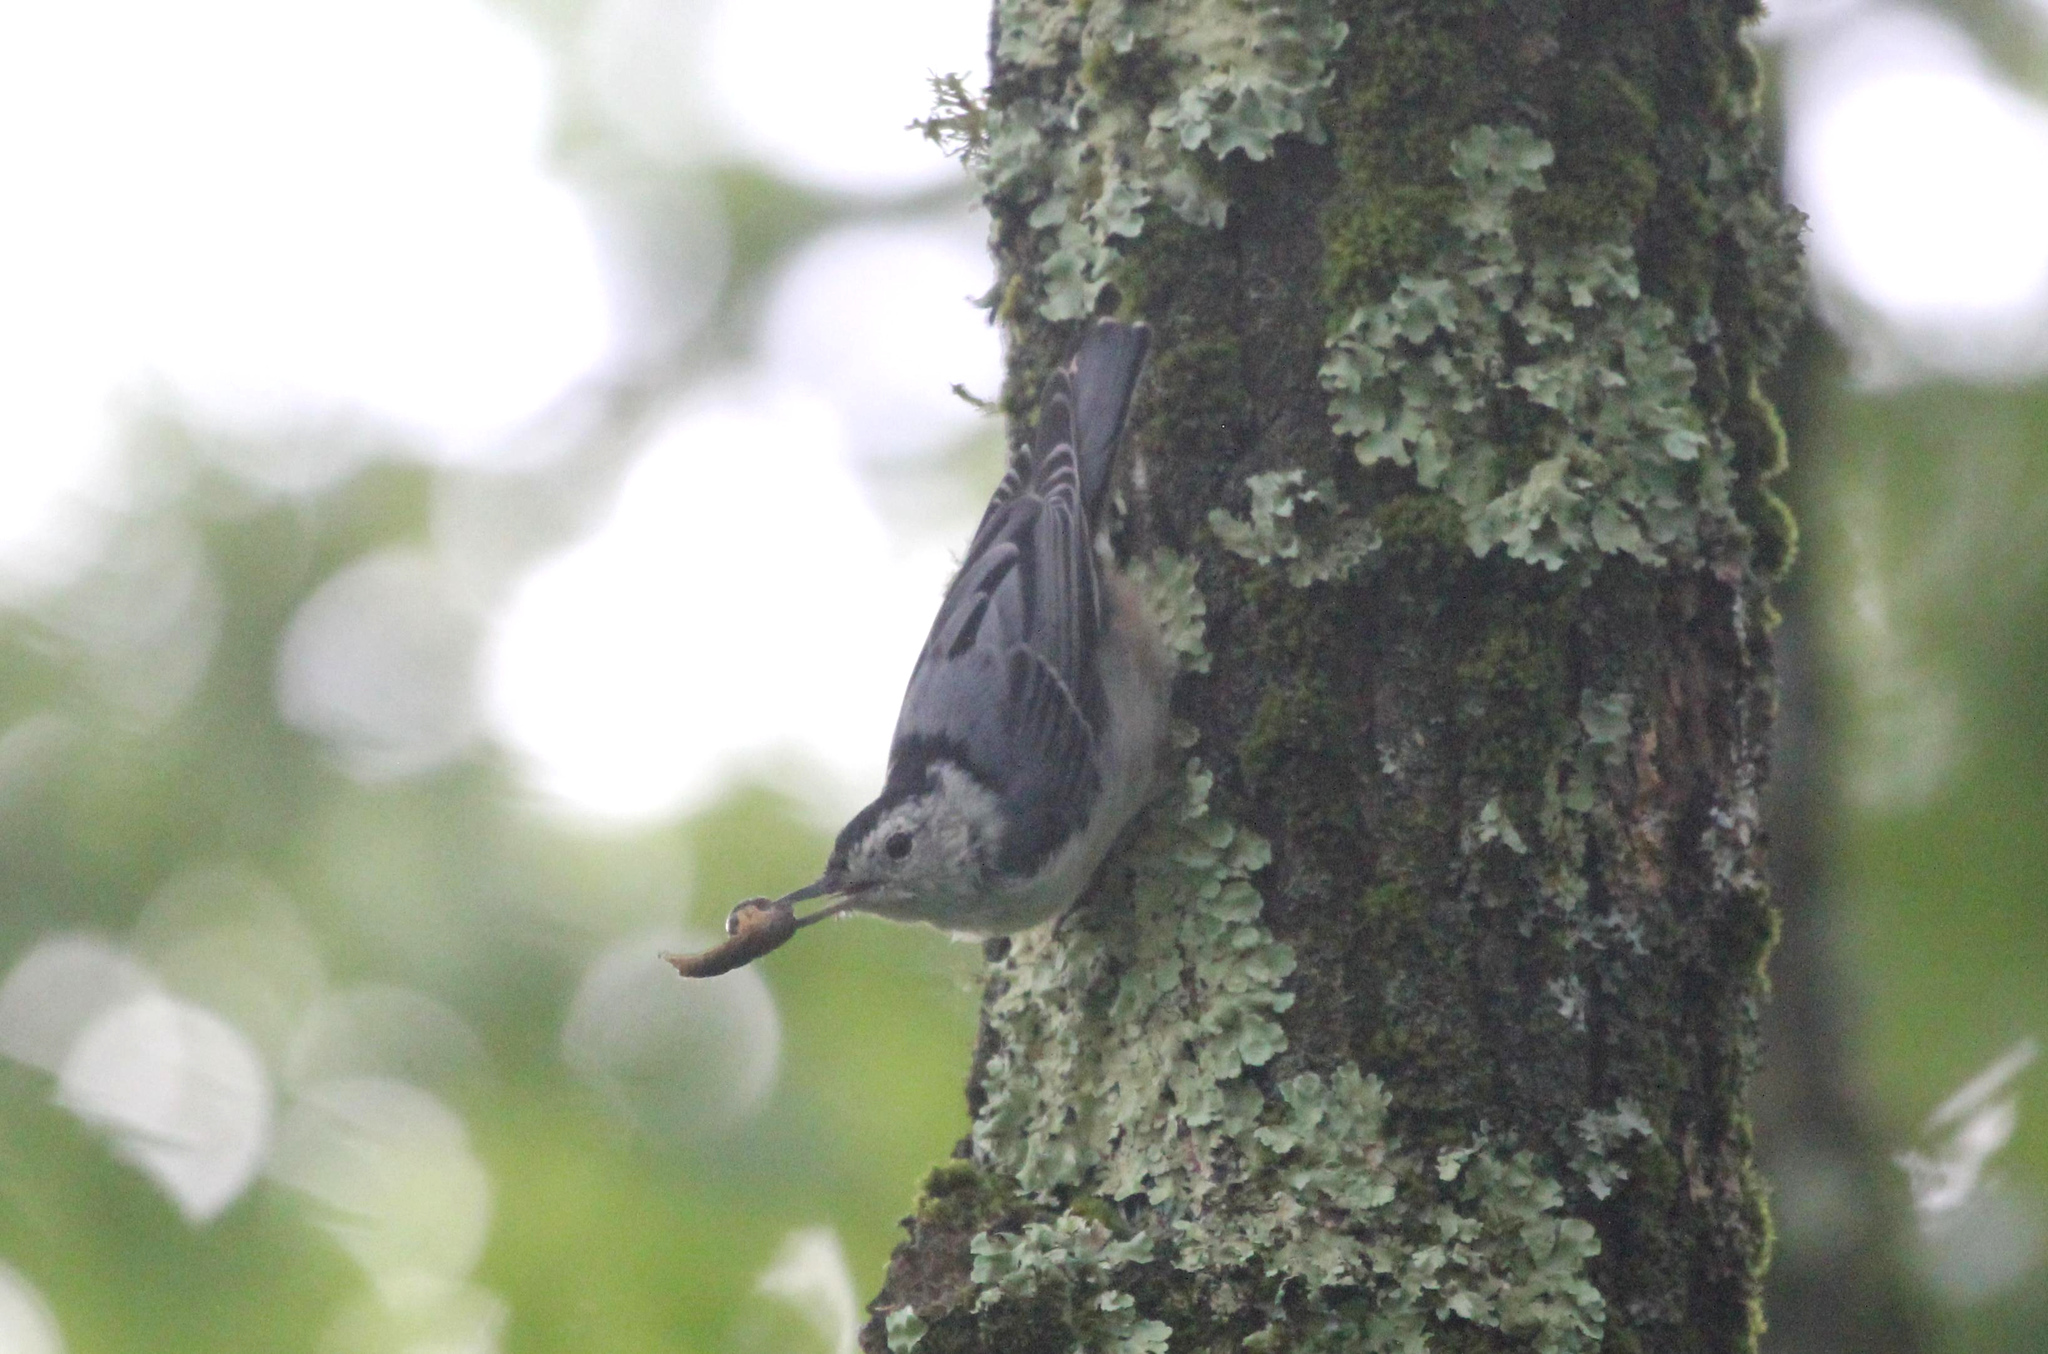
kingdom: Animalia
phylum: Chordata
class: Aves
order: Passeriformes
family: Sittidae
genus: Sitta
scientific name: Sitta carolinensis
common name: White-breasted nuthatch
